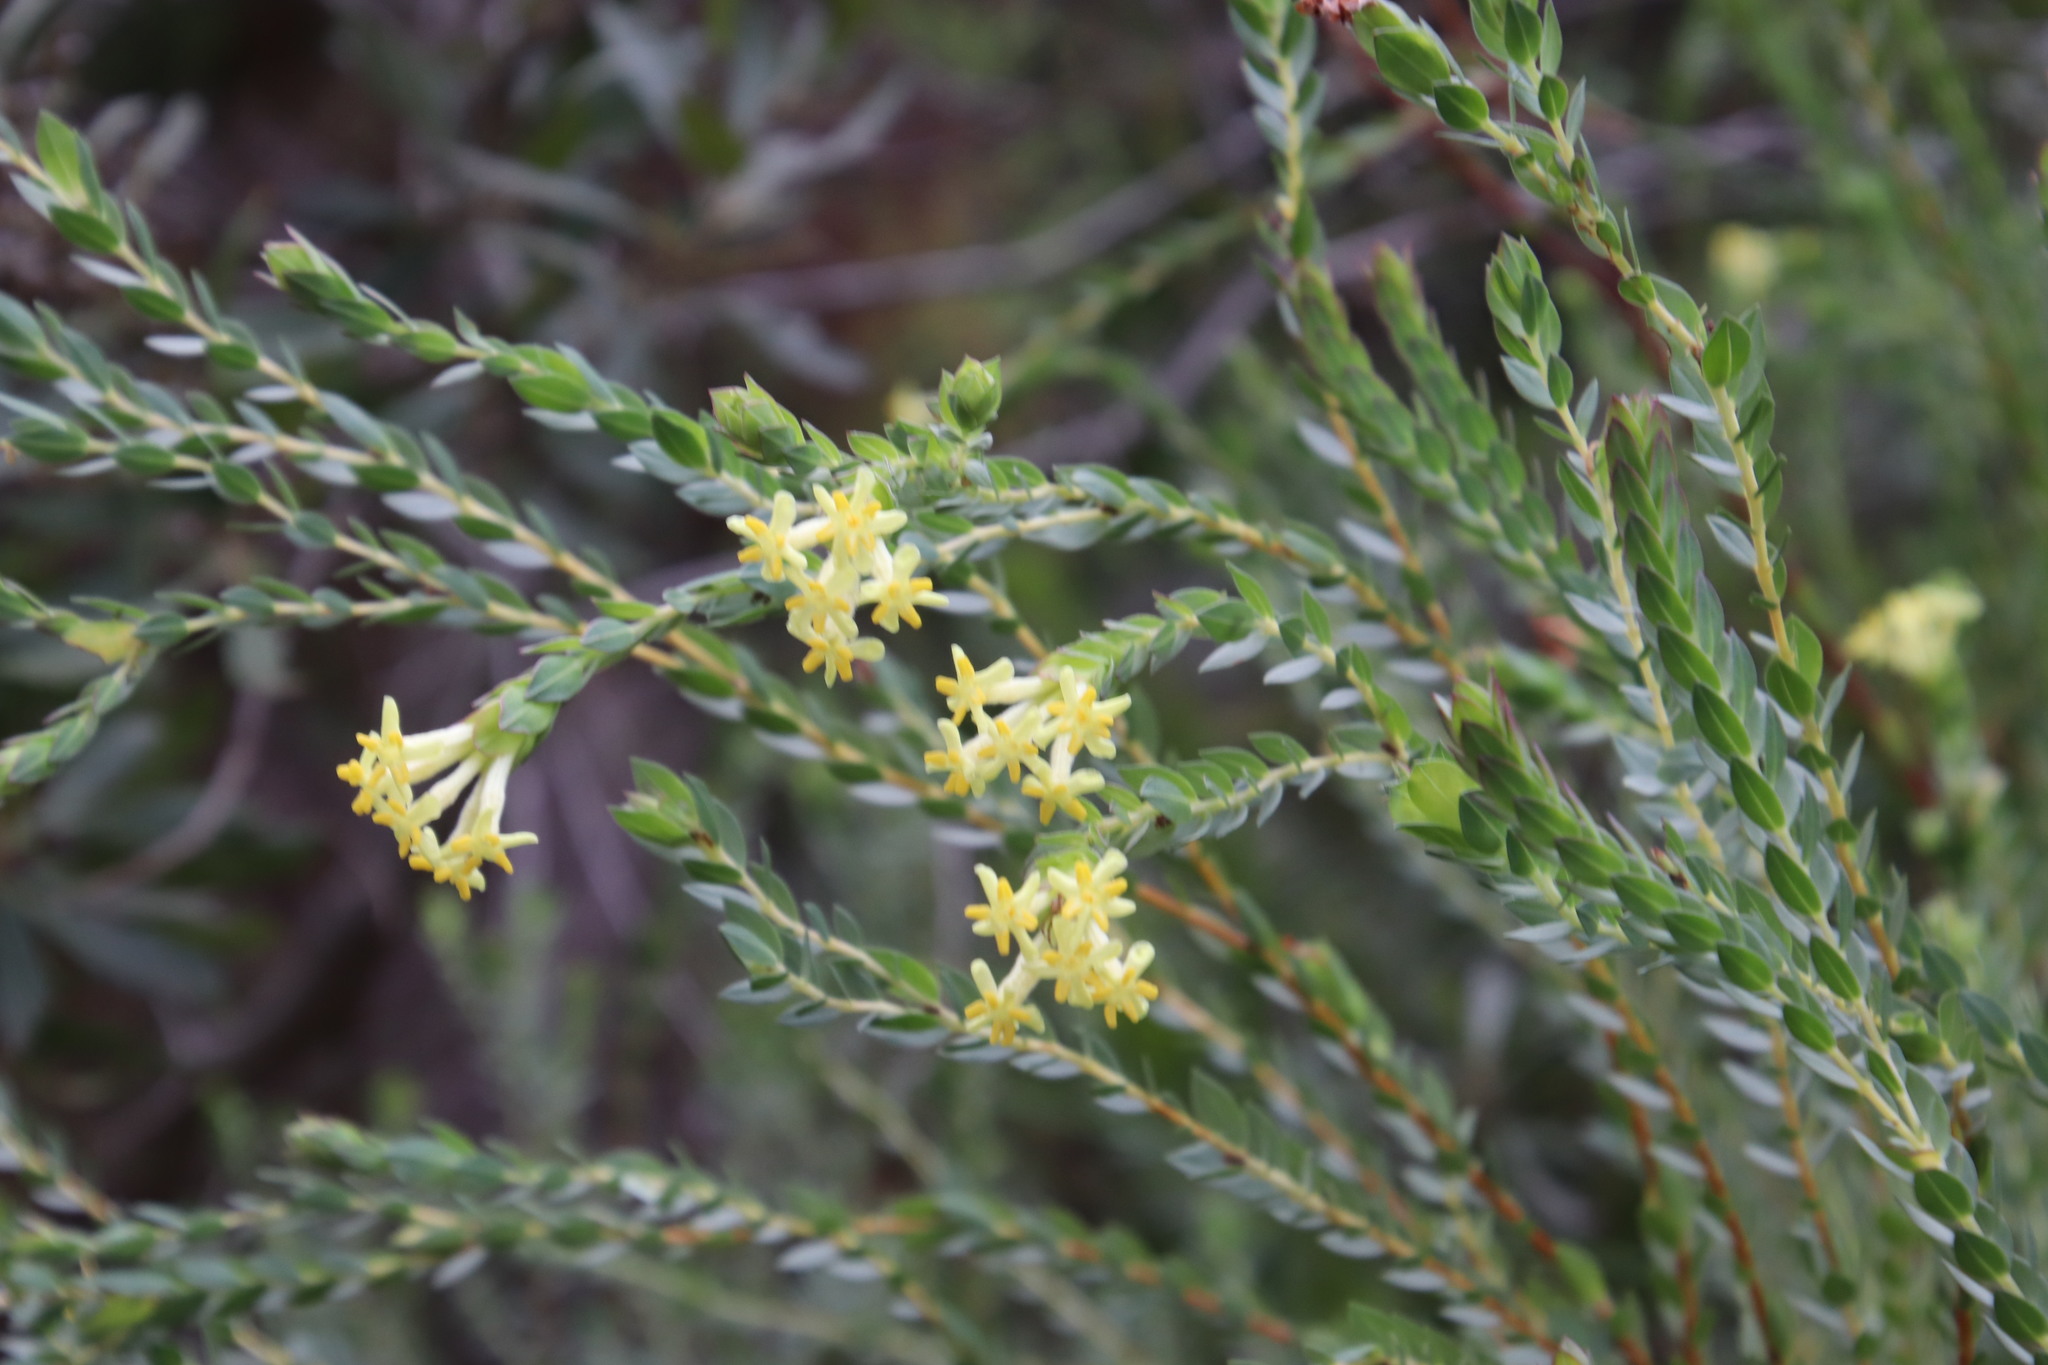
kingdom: Plantae
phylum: Tracheophyta
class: Magnoliopsida
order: Malvales
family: Thymelaeaceae
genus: Gnidia
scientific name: Gnidia oppositifolia
